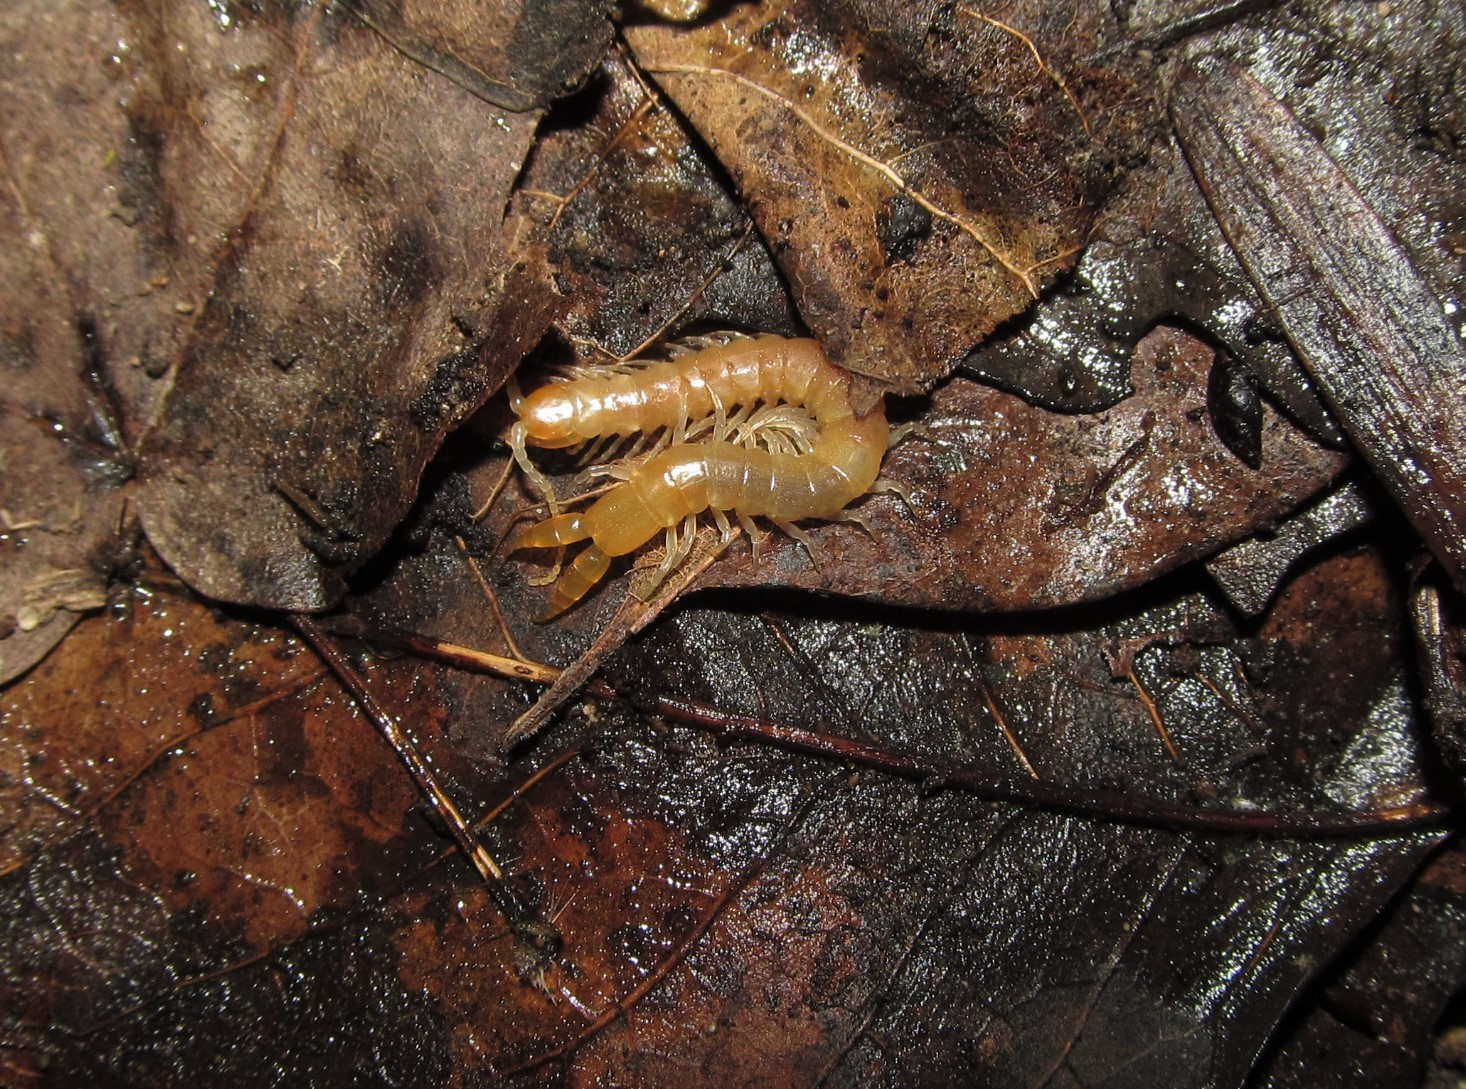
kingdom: Animalia
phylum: Arthropoda
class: Chilopoda
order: Scolopendromorpha
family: Cryptopidae
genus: Theatops
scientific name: Theatops posticus
